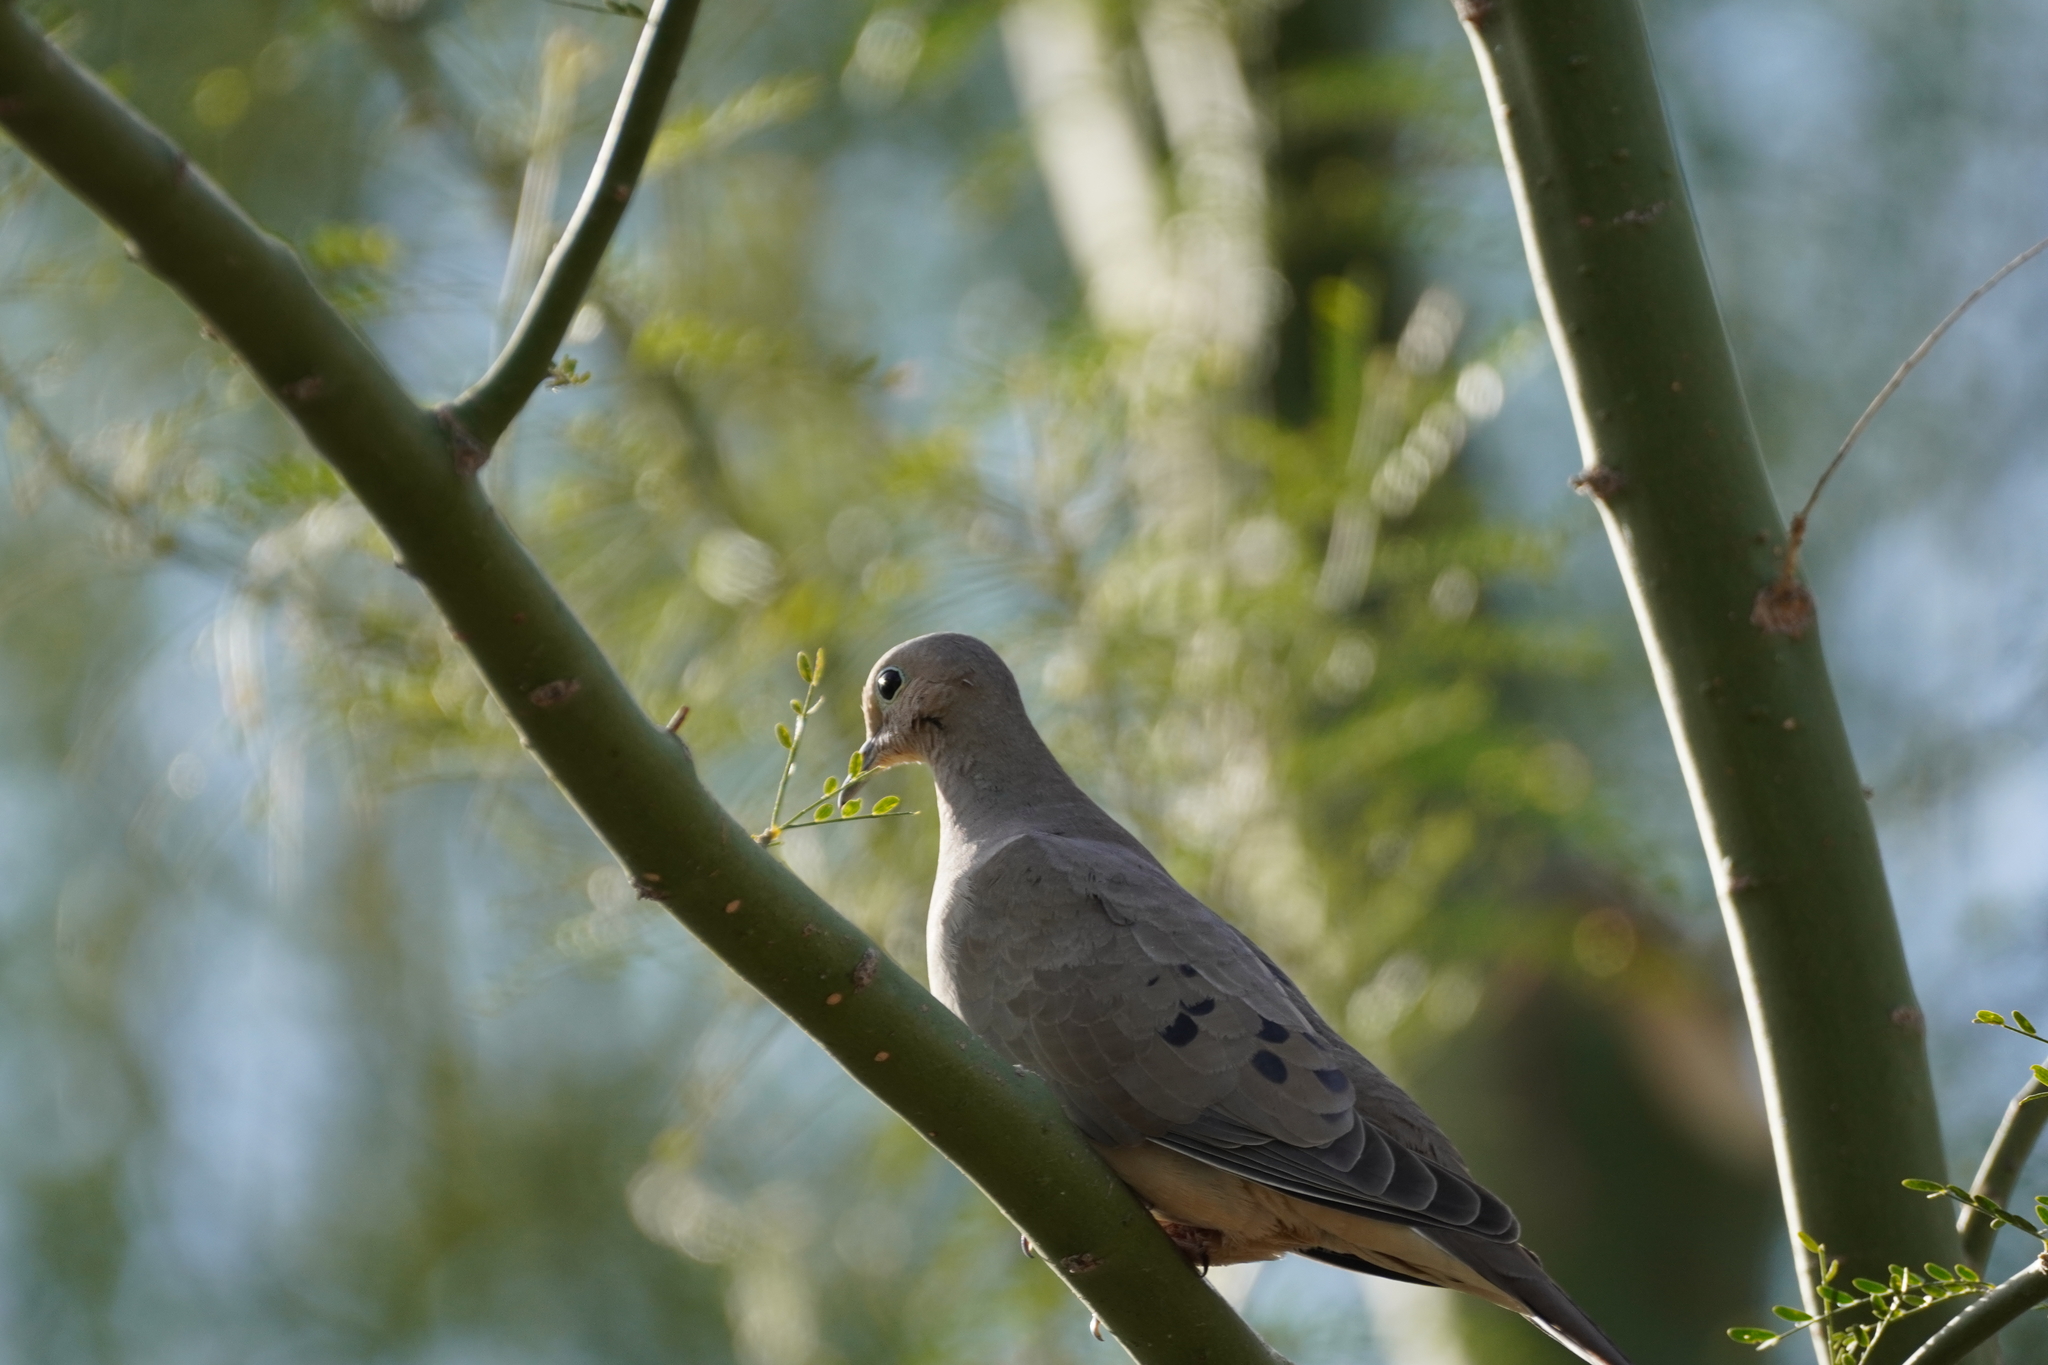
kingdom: Animalia
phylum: Chordata
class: Aves
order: Columbiformes
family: Columbidae
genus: Zenaida
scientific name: Zenaida macroura
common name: Mourning dove
